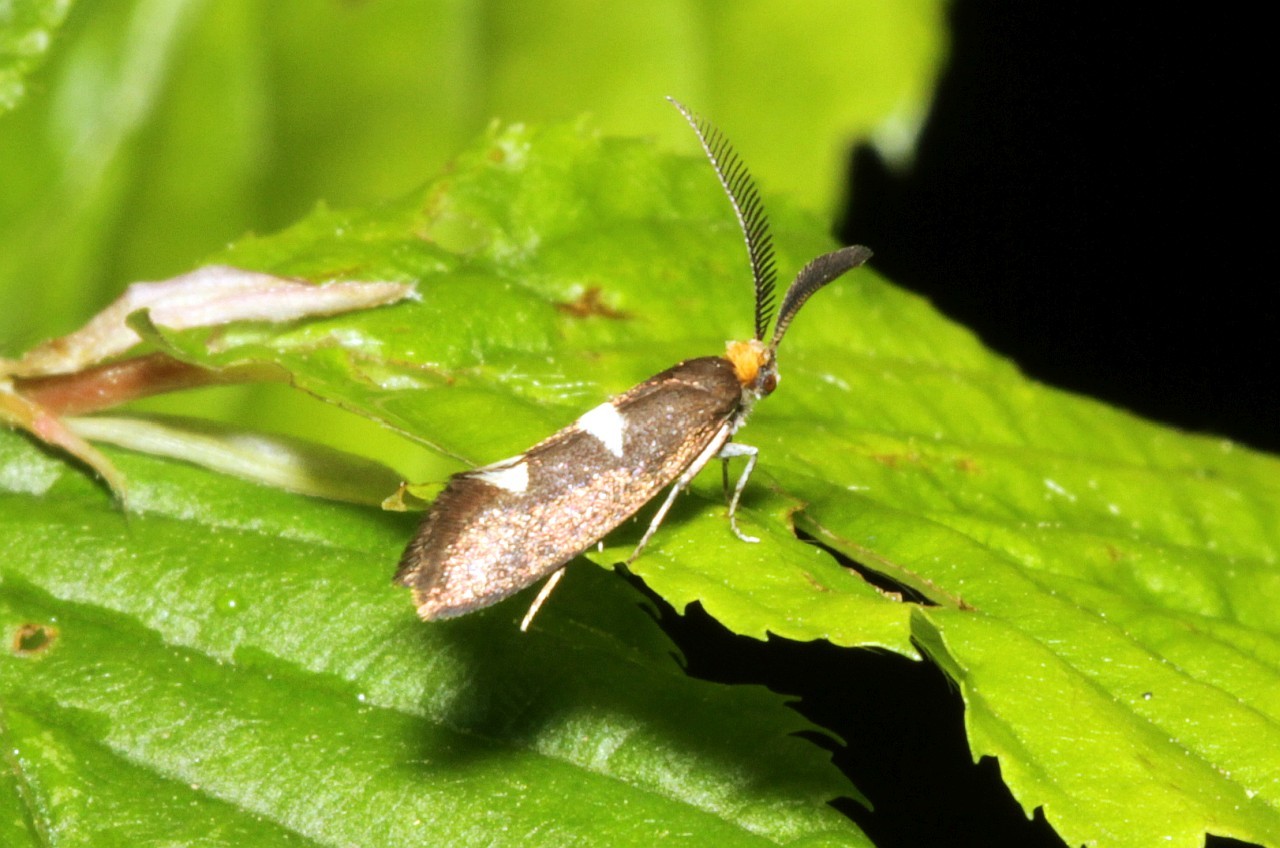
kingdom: Animalia
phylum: Arthropoda
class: Insecta
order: Lepidoptera
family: Incurvariidae
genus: Incurvaria
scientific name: Incurvaria masculella
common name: Feathered leaf-cutter
